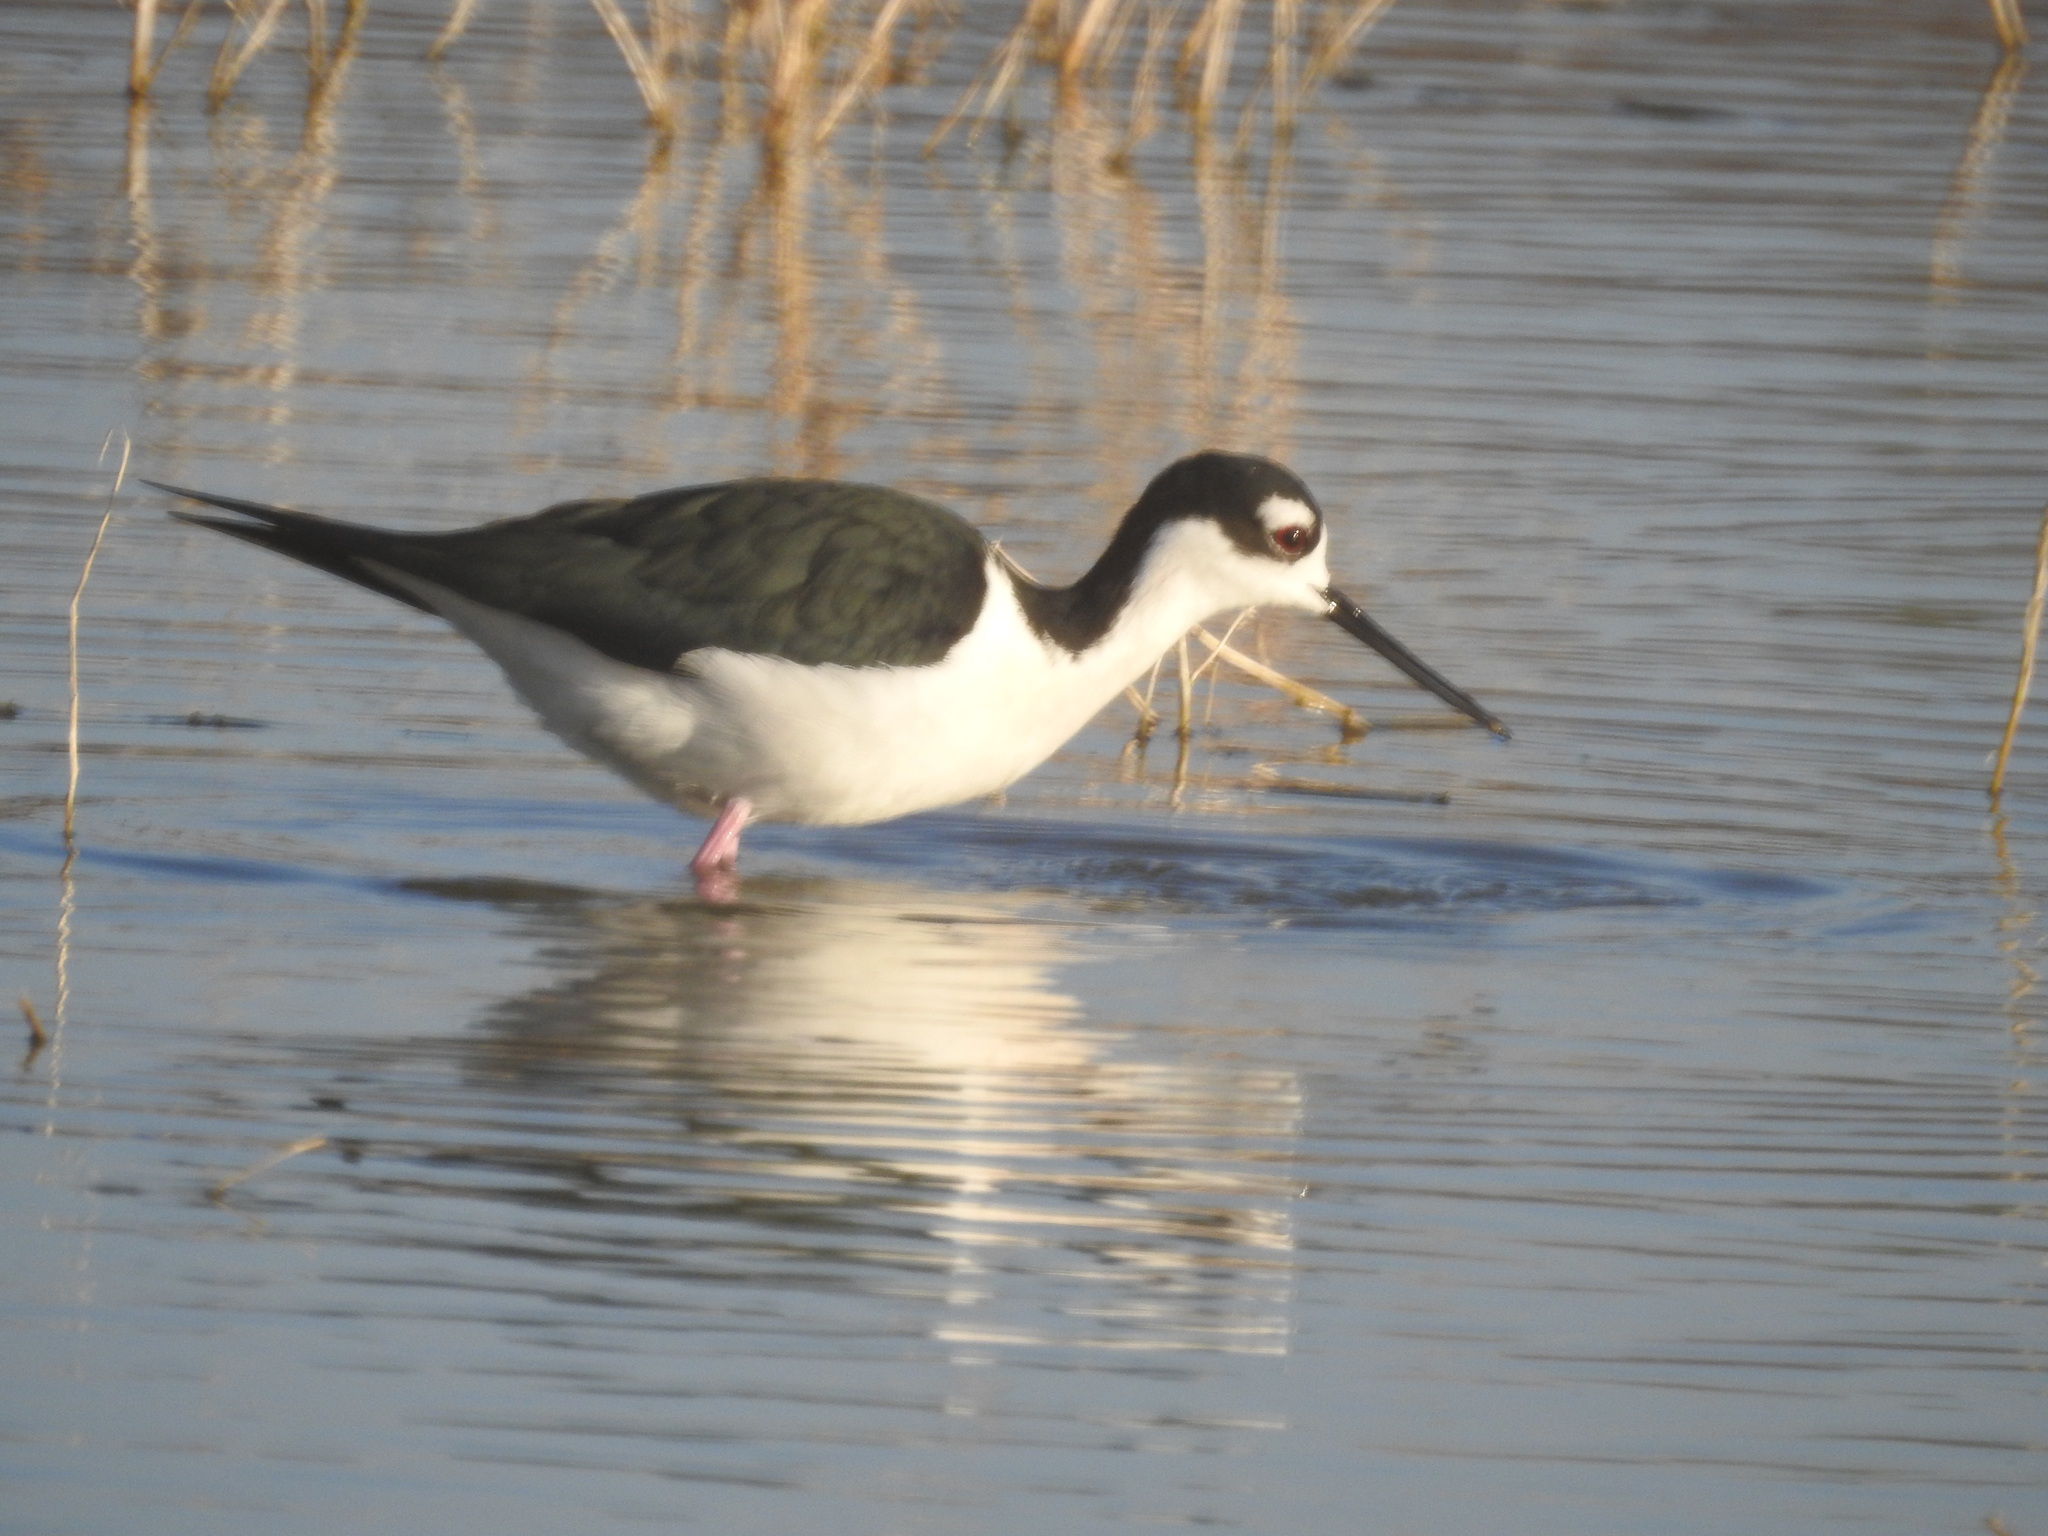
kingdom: Animalia
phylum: Chordata
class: Aves
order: Charadriiformes
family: Recurvirostridae
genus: Himantopus
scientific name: Himantopus mexicanus
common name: Black-necked stilt
